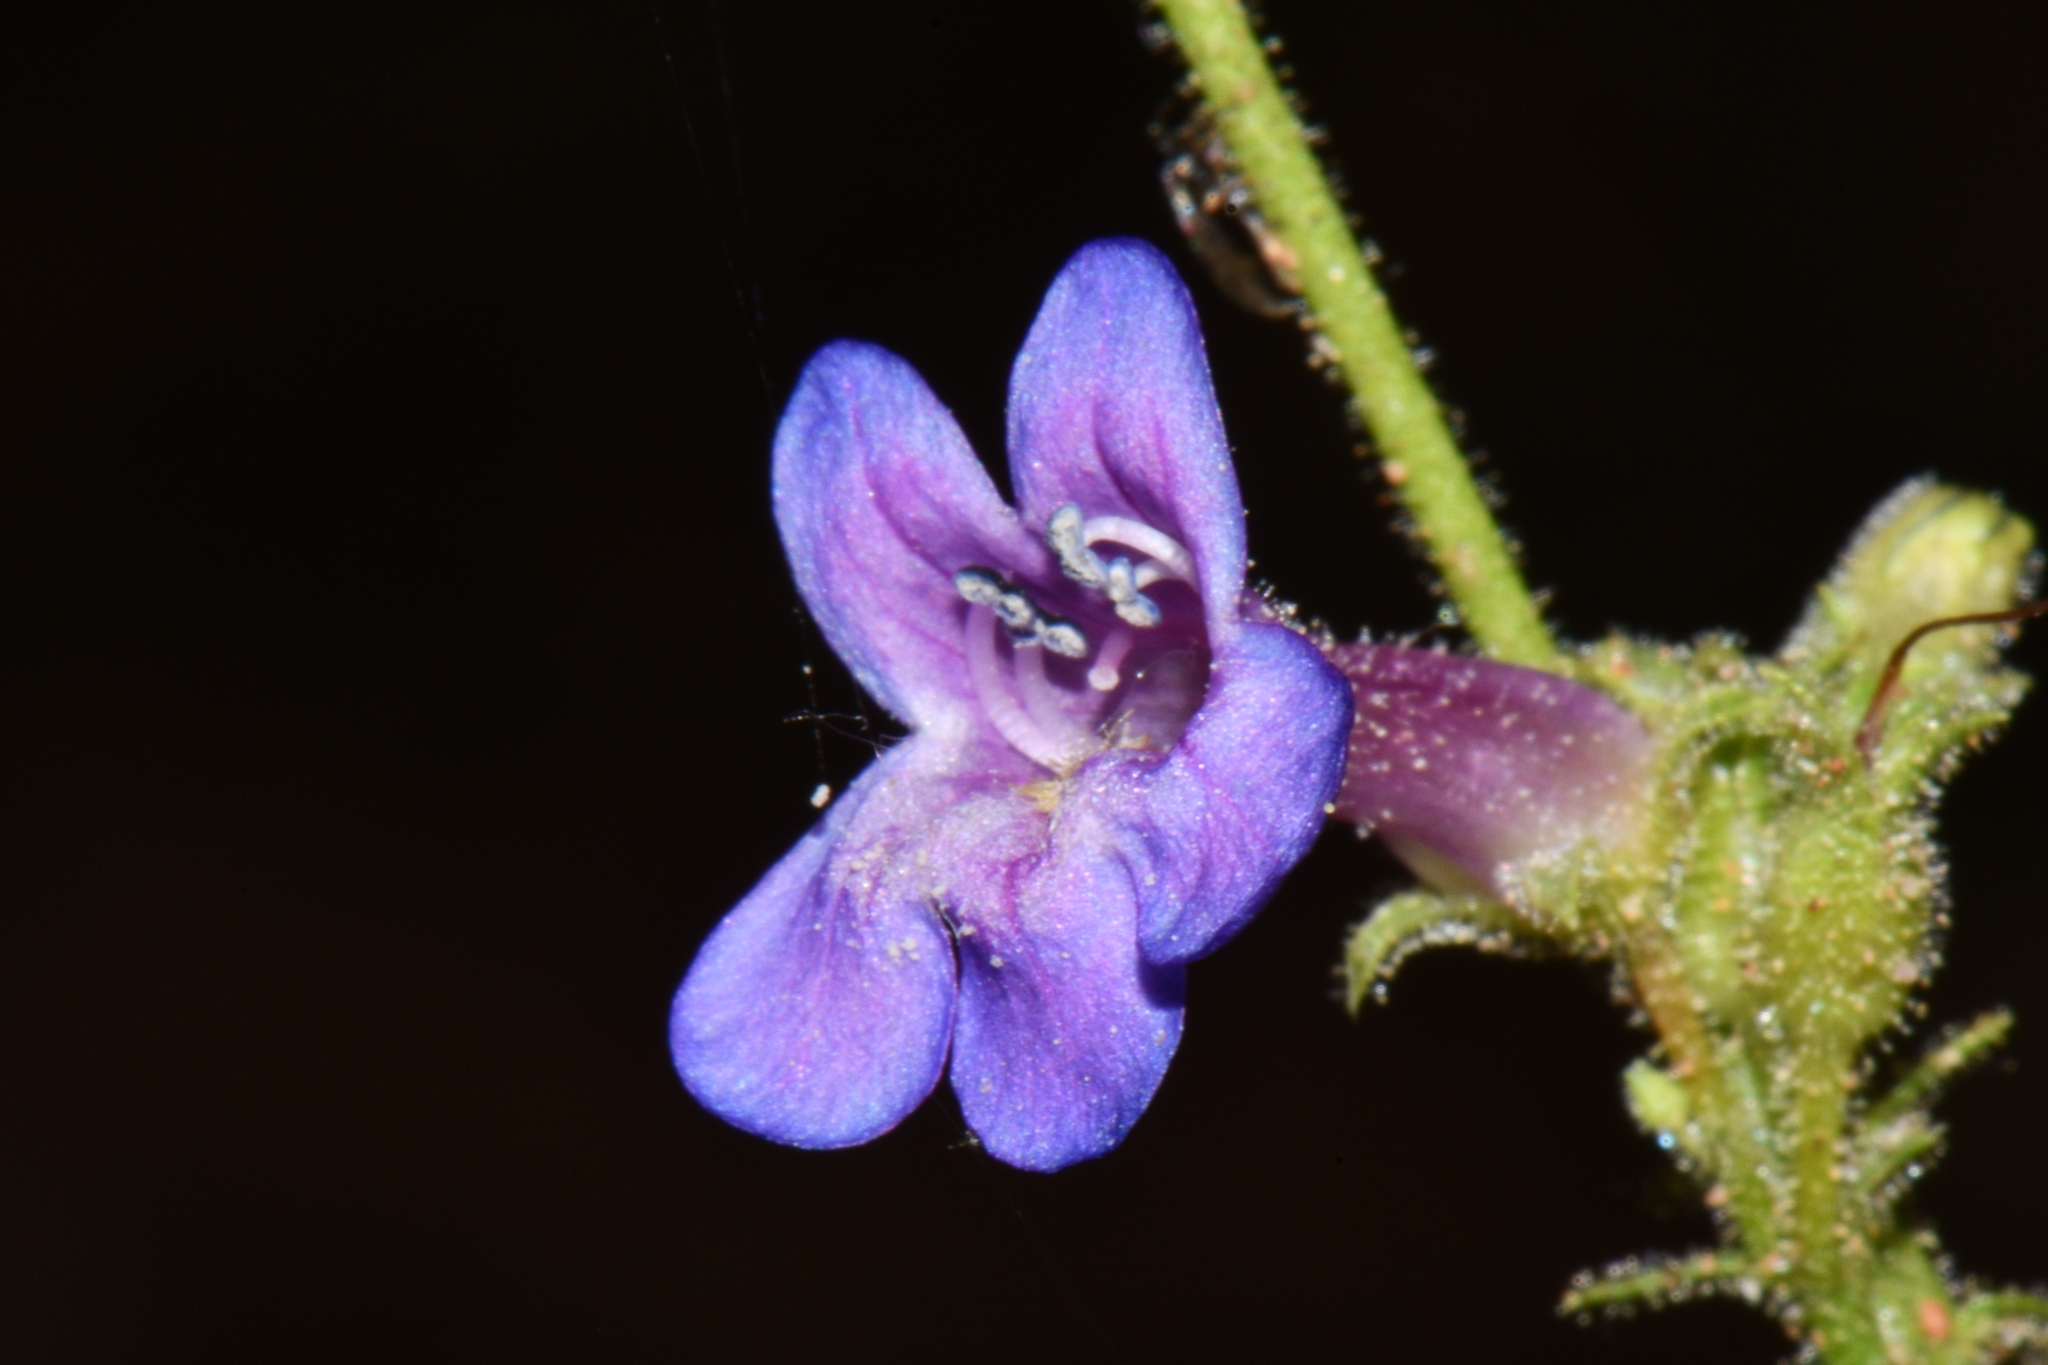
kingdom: Plantae
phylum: Tracheophyta
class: Magnoliopsida
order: Lamiales
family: Plantaginaceae
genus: Penstemon
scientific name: Penstemon humilis
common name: Low penstemon
